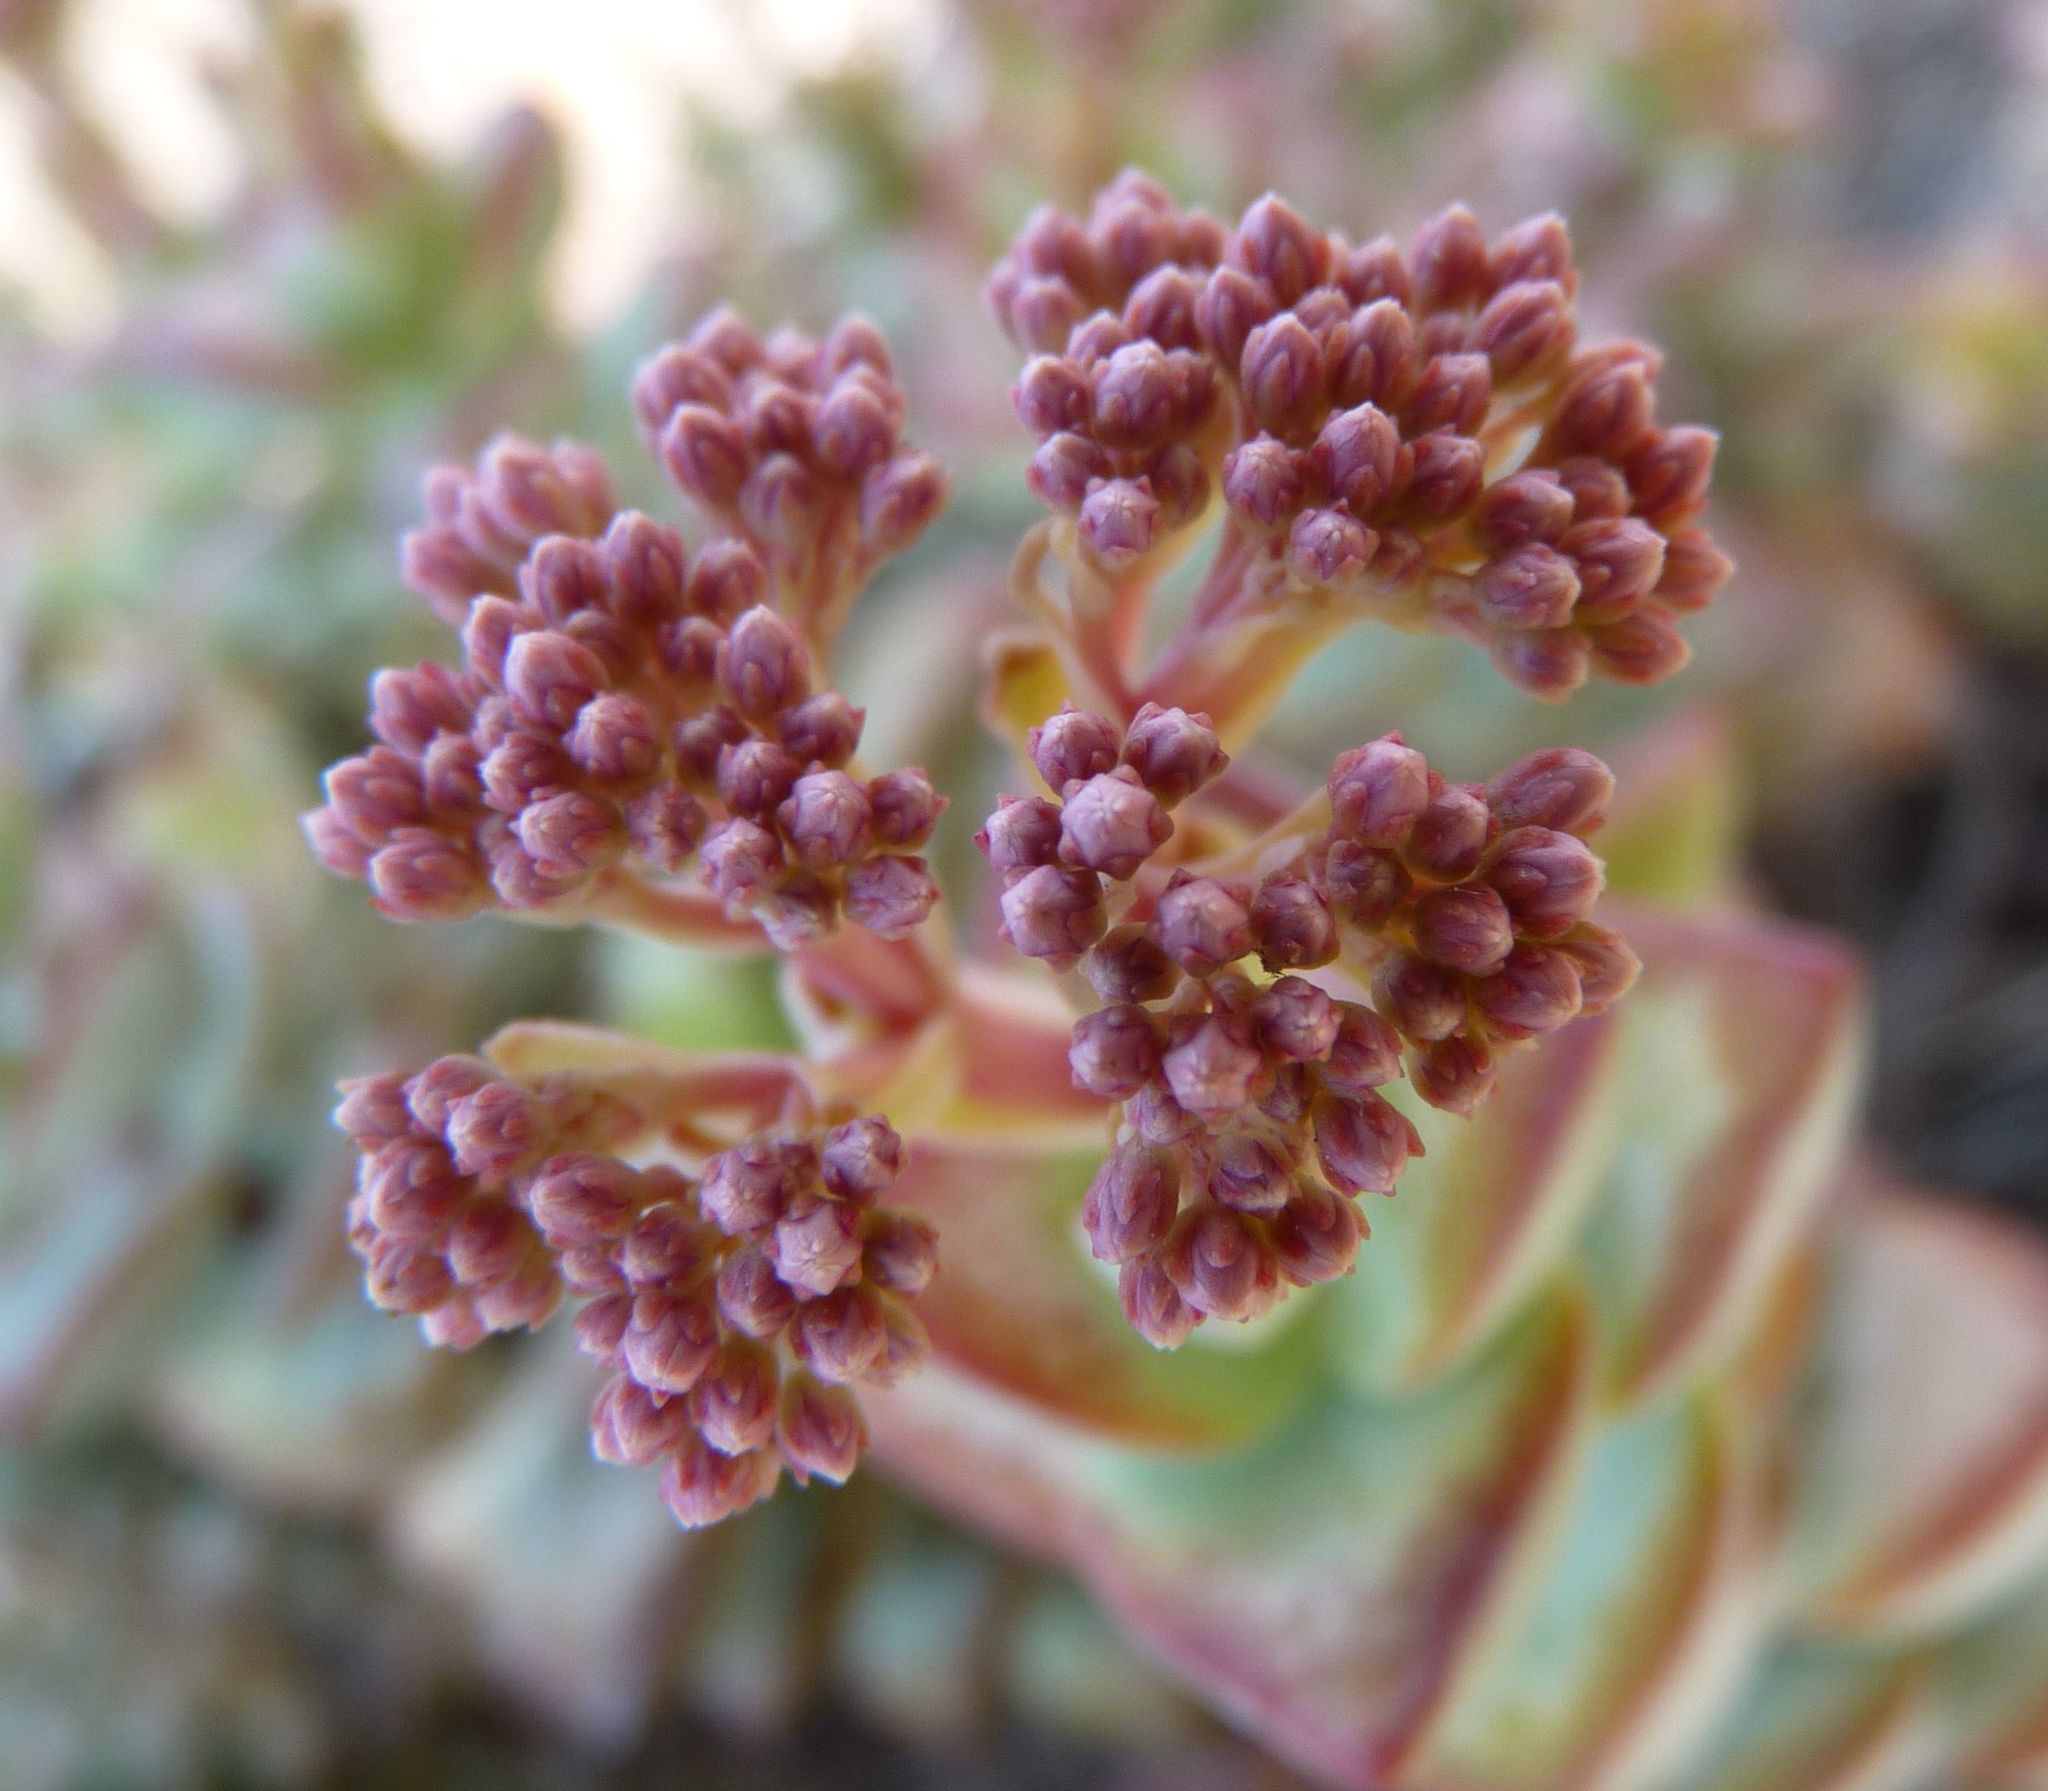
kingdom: Plantae
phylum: Tracheophyta
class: Magnoliopsida
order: Saxifragales
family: Crassulaceae
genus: Crassula
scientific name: Crassula rupestris
